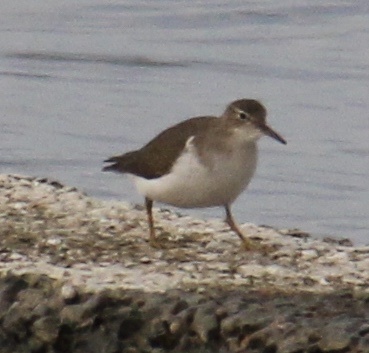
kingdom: Animalia
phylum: Chordata
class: Aves
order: Charadriiformes
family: Scolopacidae
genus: Actitis
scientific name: Actitis macularius
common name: Spotted sandpiper
